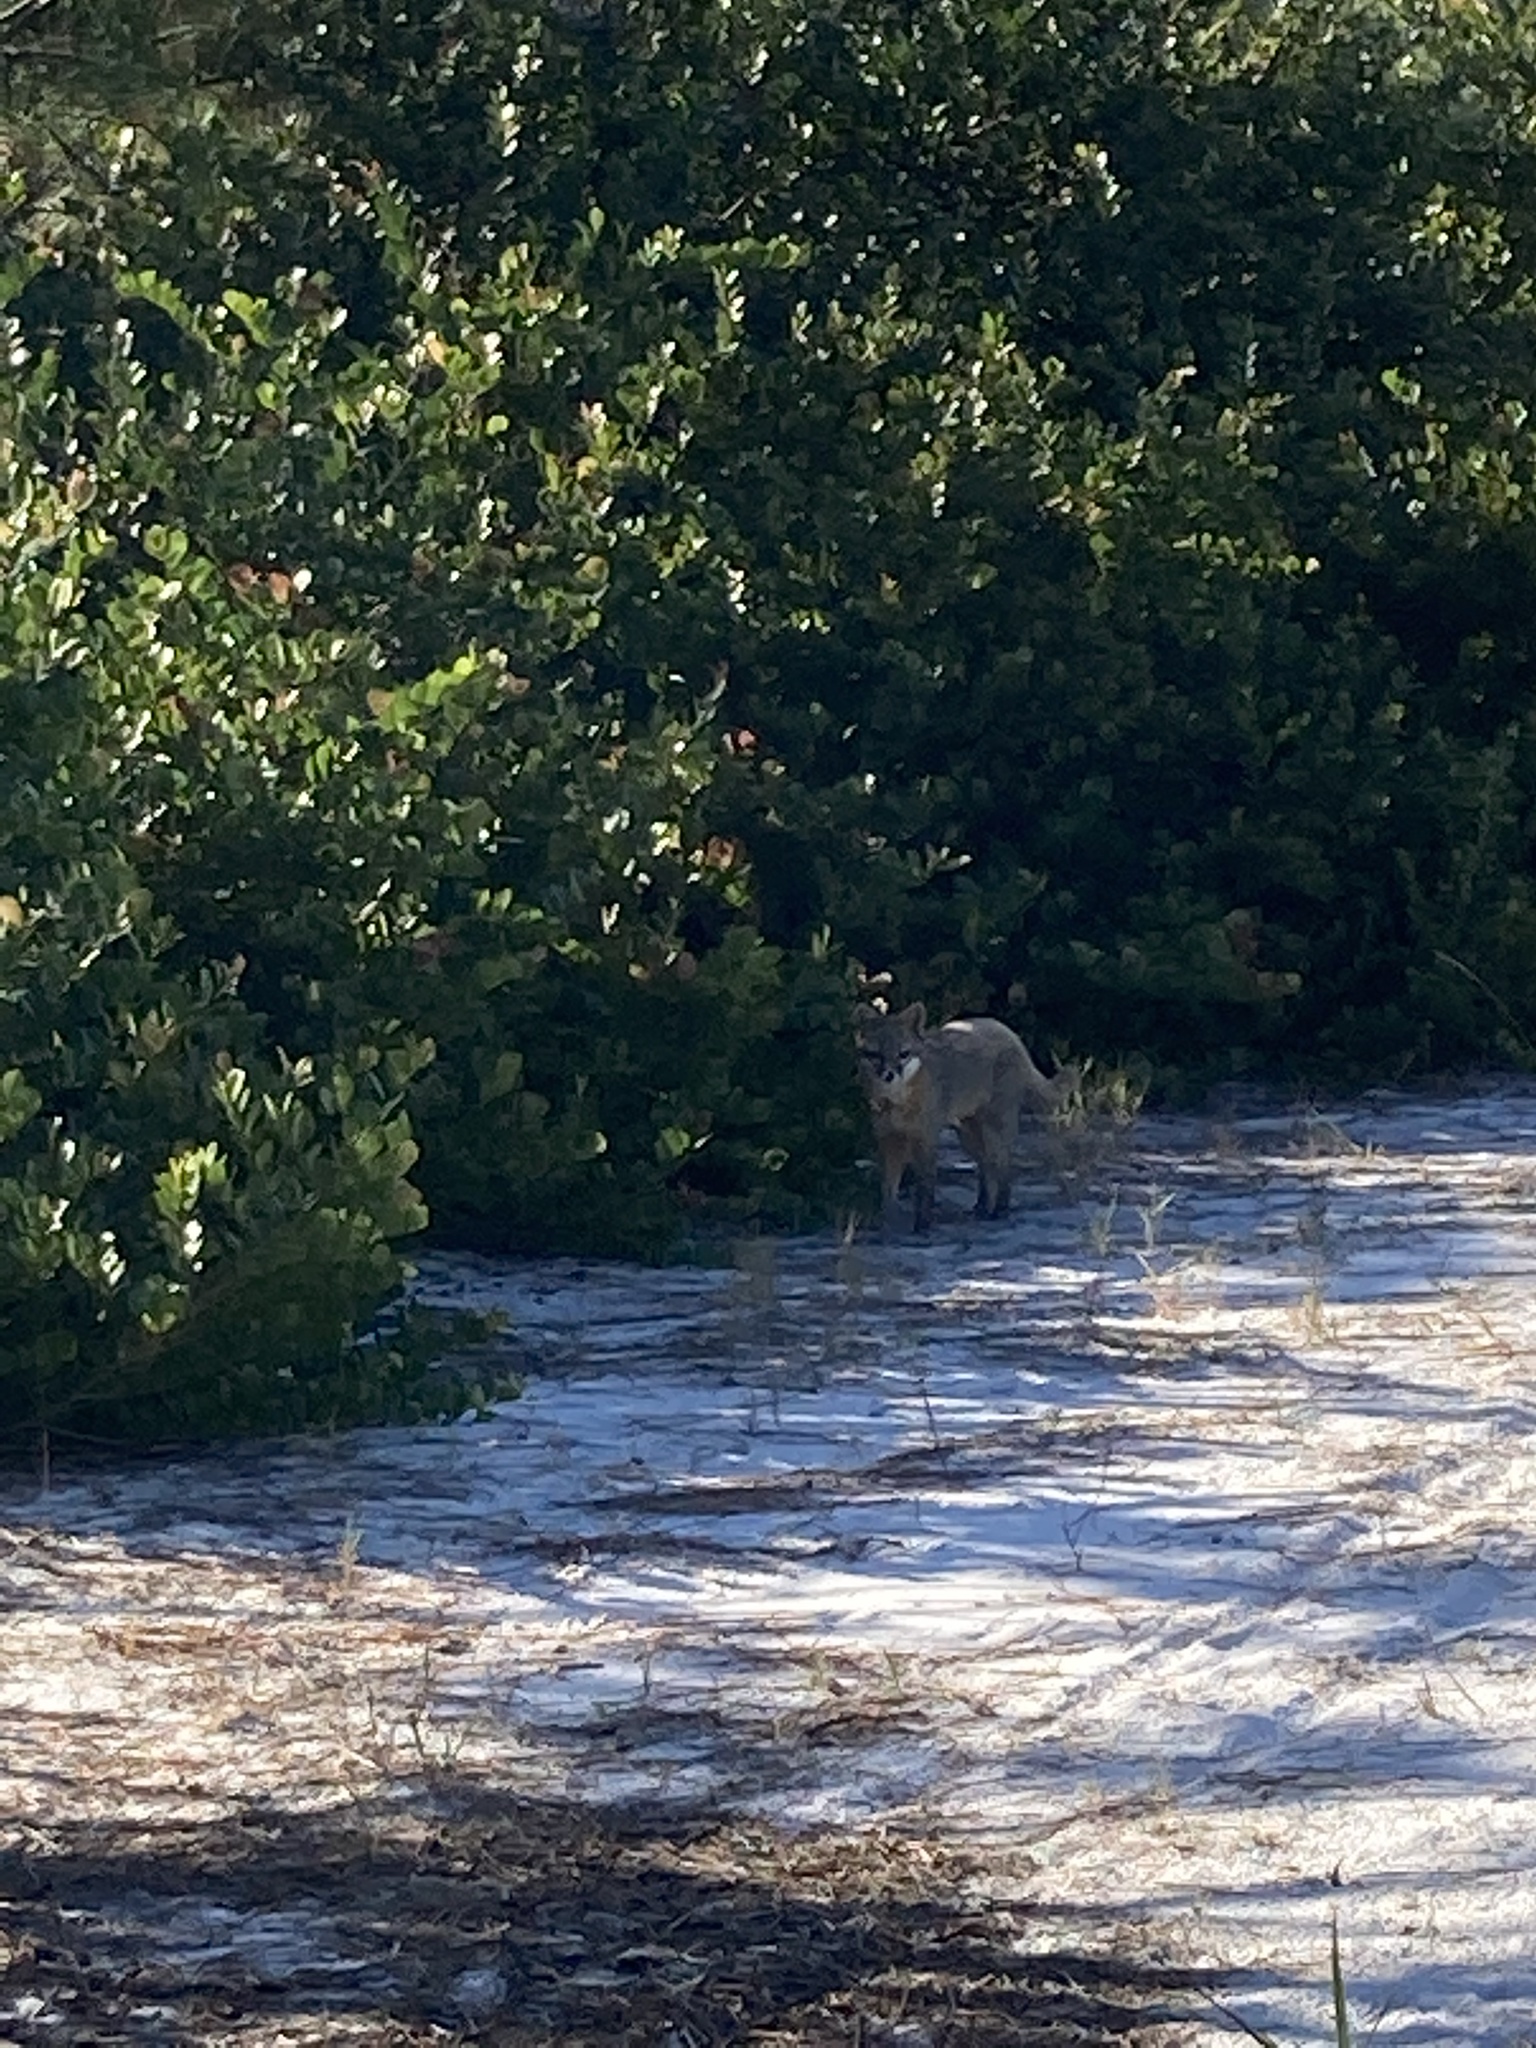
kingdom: Animalia
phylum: Chordata
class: Mammalia
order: Carnivora
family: Canidae
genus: Urocyon
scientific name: Urocyon cinereoargenteus
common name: Gray fox
